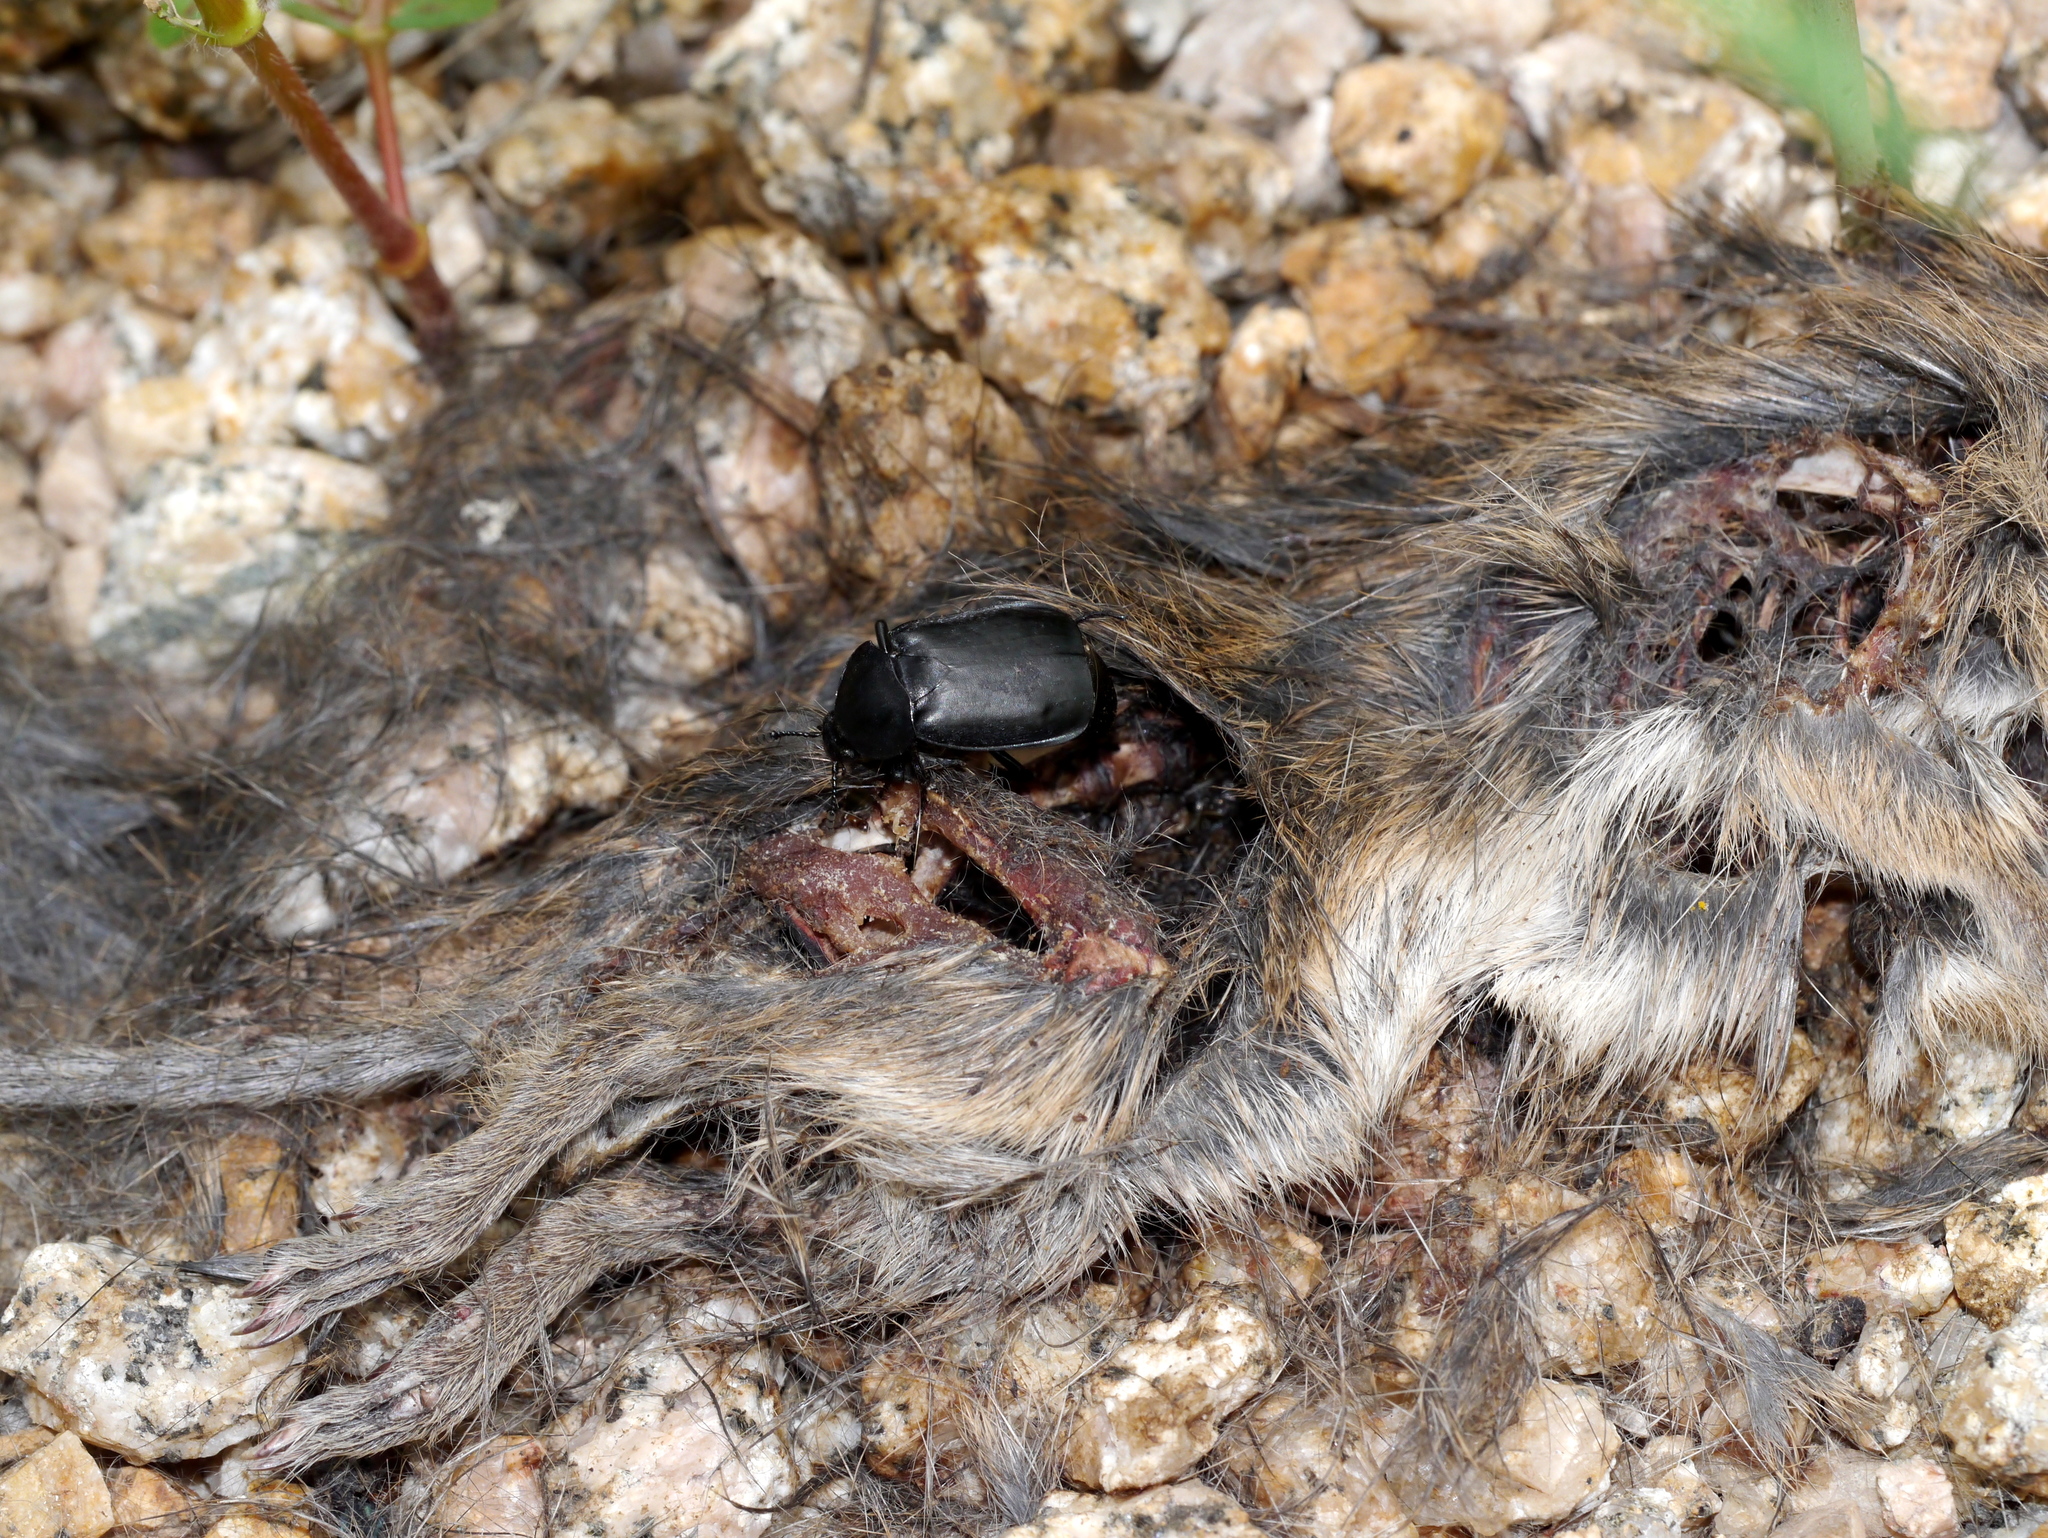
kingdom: Animalia
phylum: Arthropoda
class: Insecta
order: Coleoptera
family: Staphylinidae
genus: Thanatophilus
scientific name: Thanatophilus truncatus
